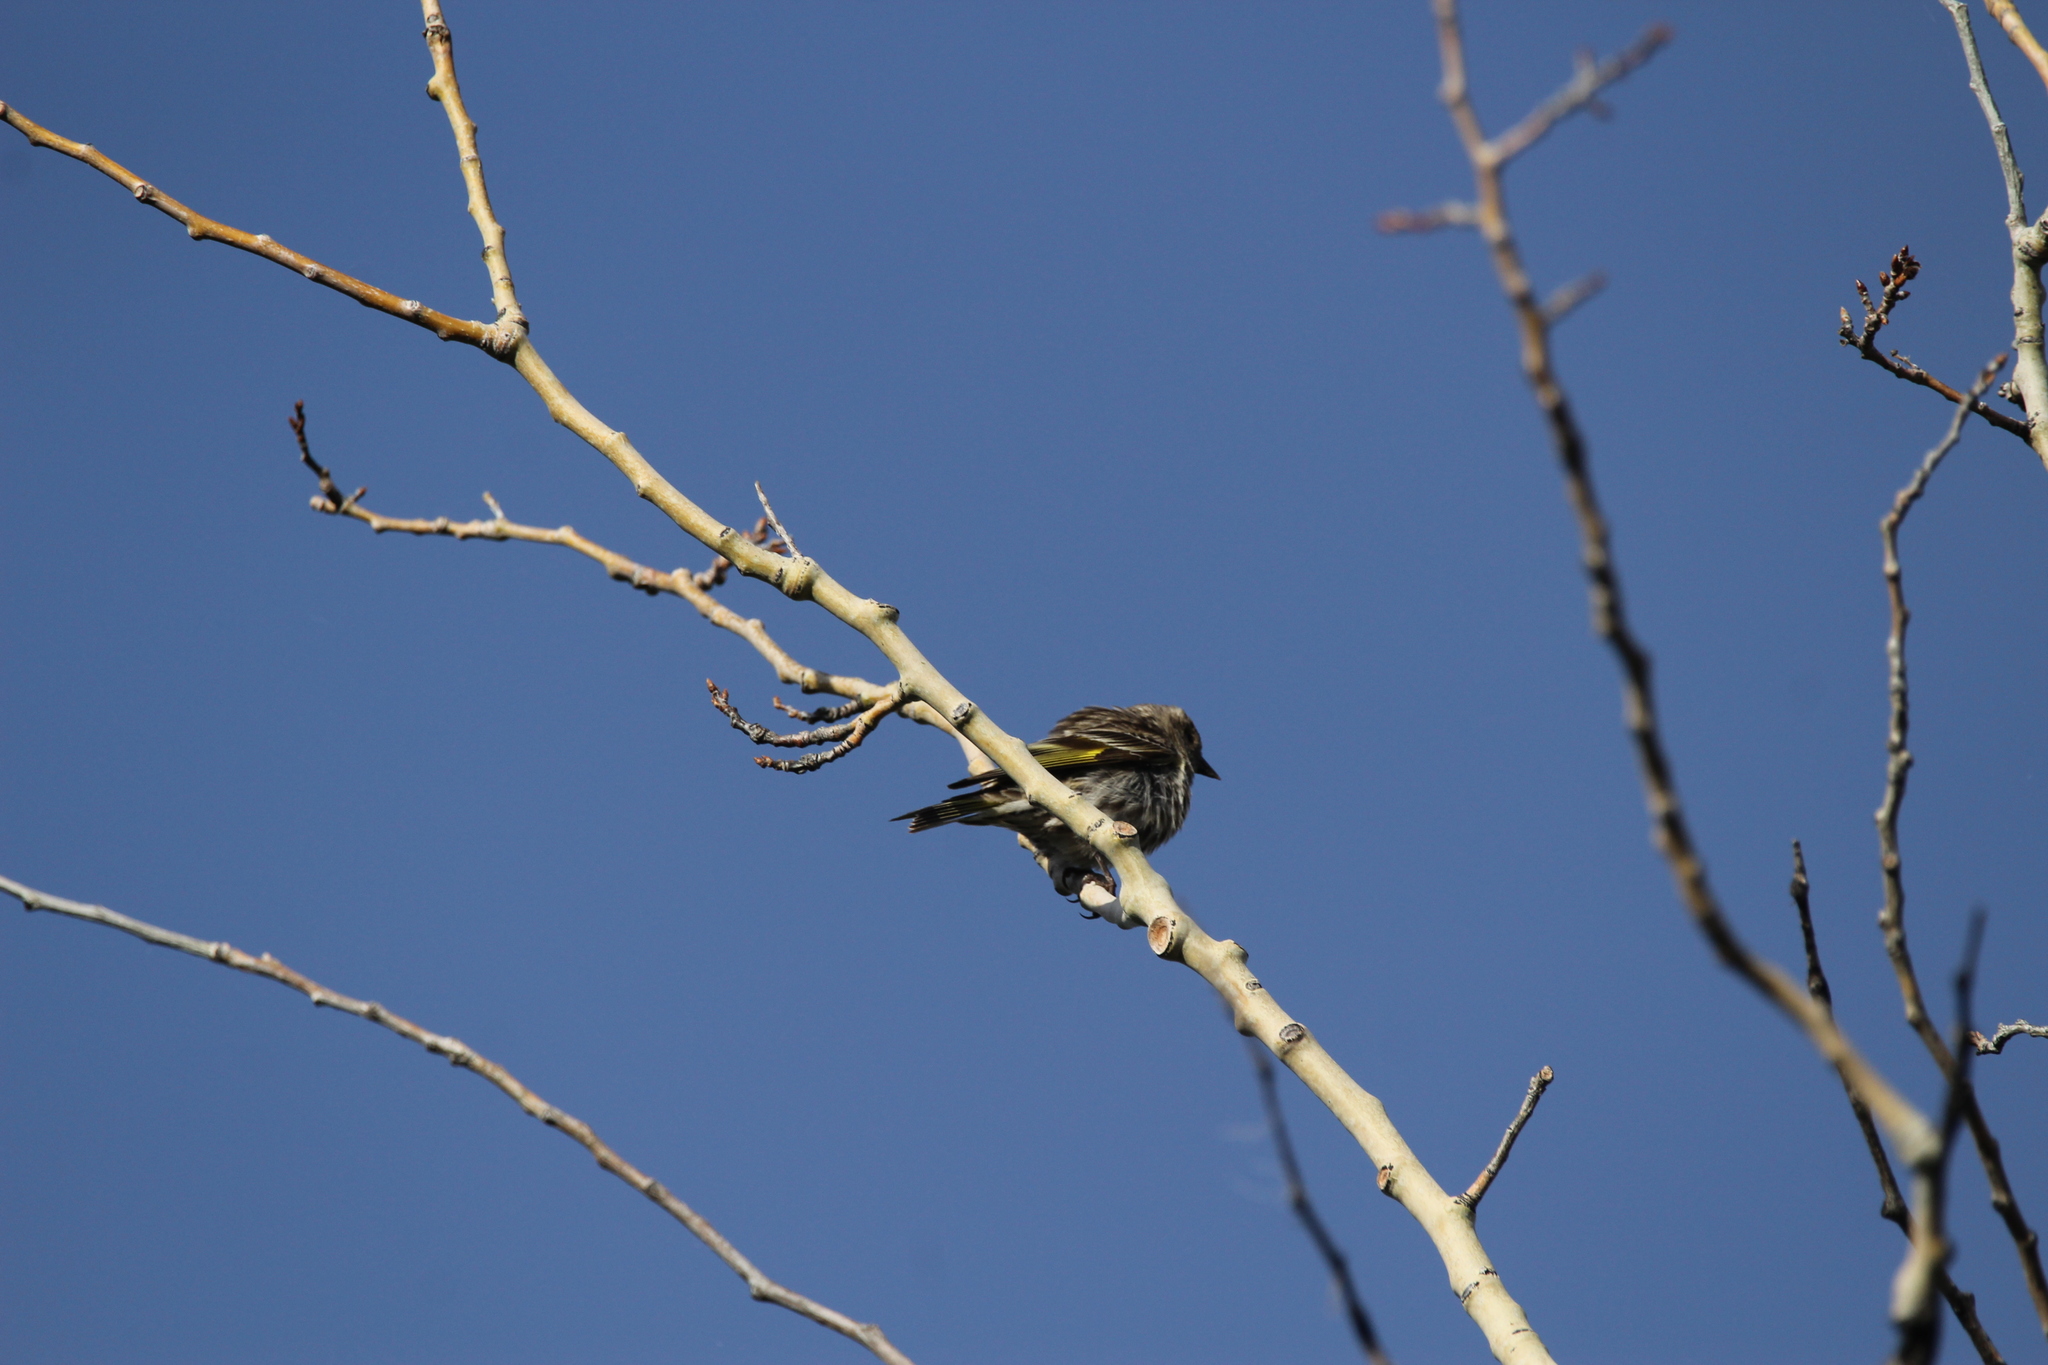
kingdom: Animalia
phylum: Chordata
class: Aves
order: Passeriformes
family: Fringillidae
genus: Spinus
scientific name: Spinus pinus
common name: Pine siskin
